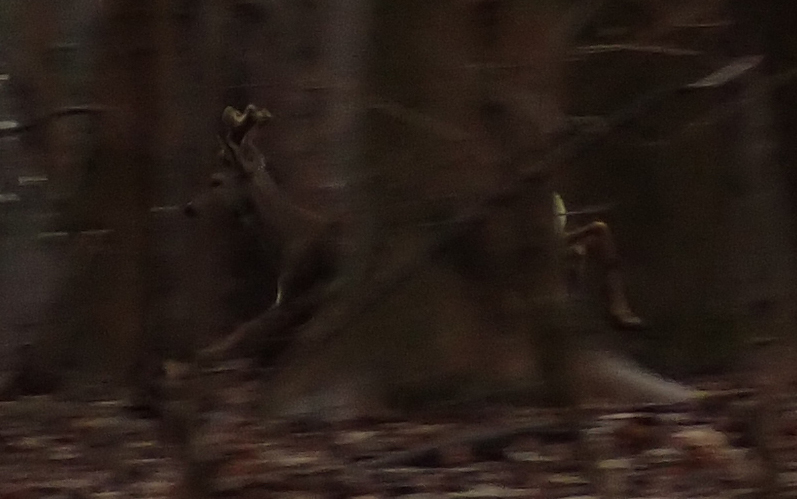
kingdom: Animalia
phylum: Chordata
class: Mammalia
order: Artiodactyla
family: Cervidae
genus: Capreolus
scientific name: Capreolus capreolus
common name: Western roe deer
